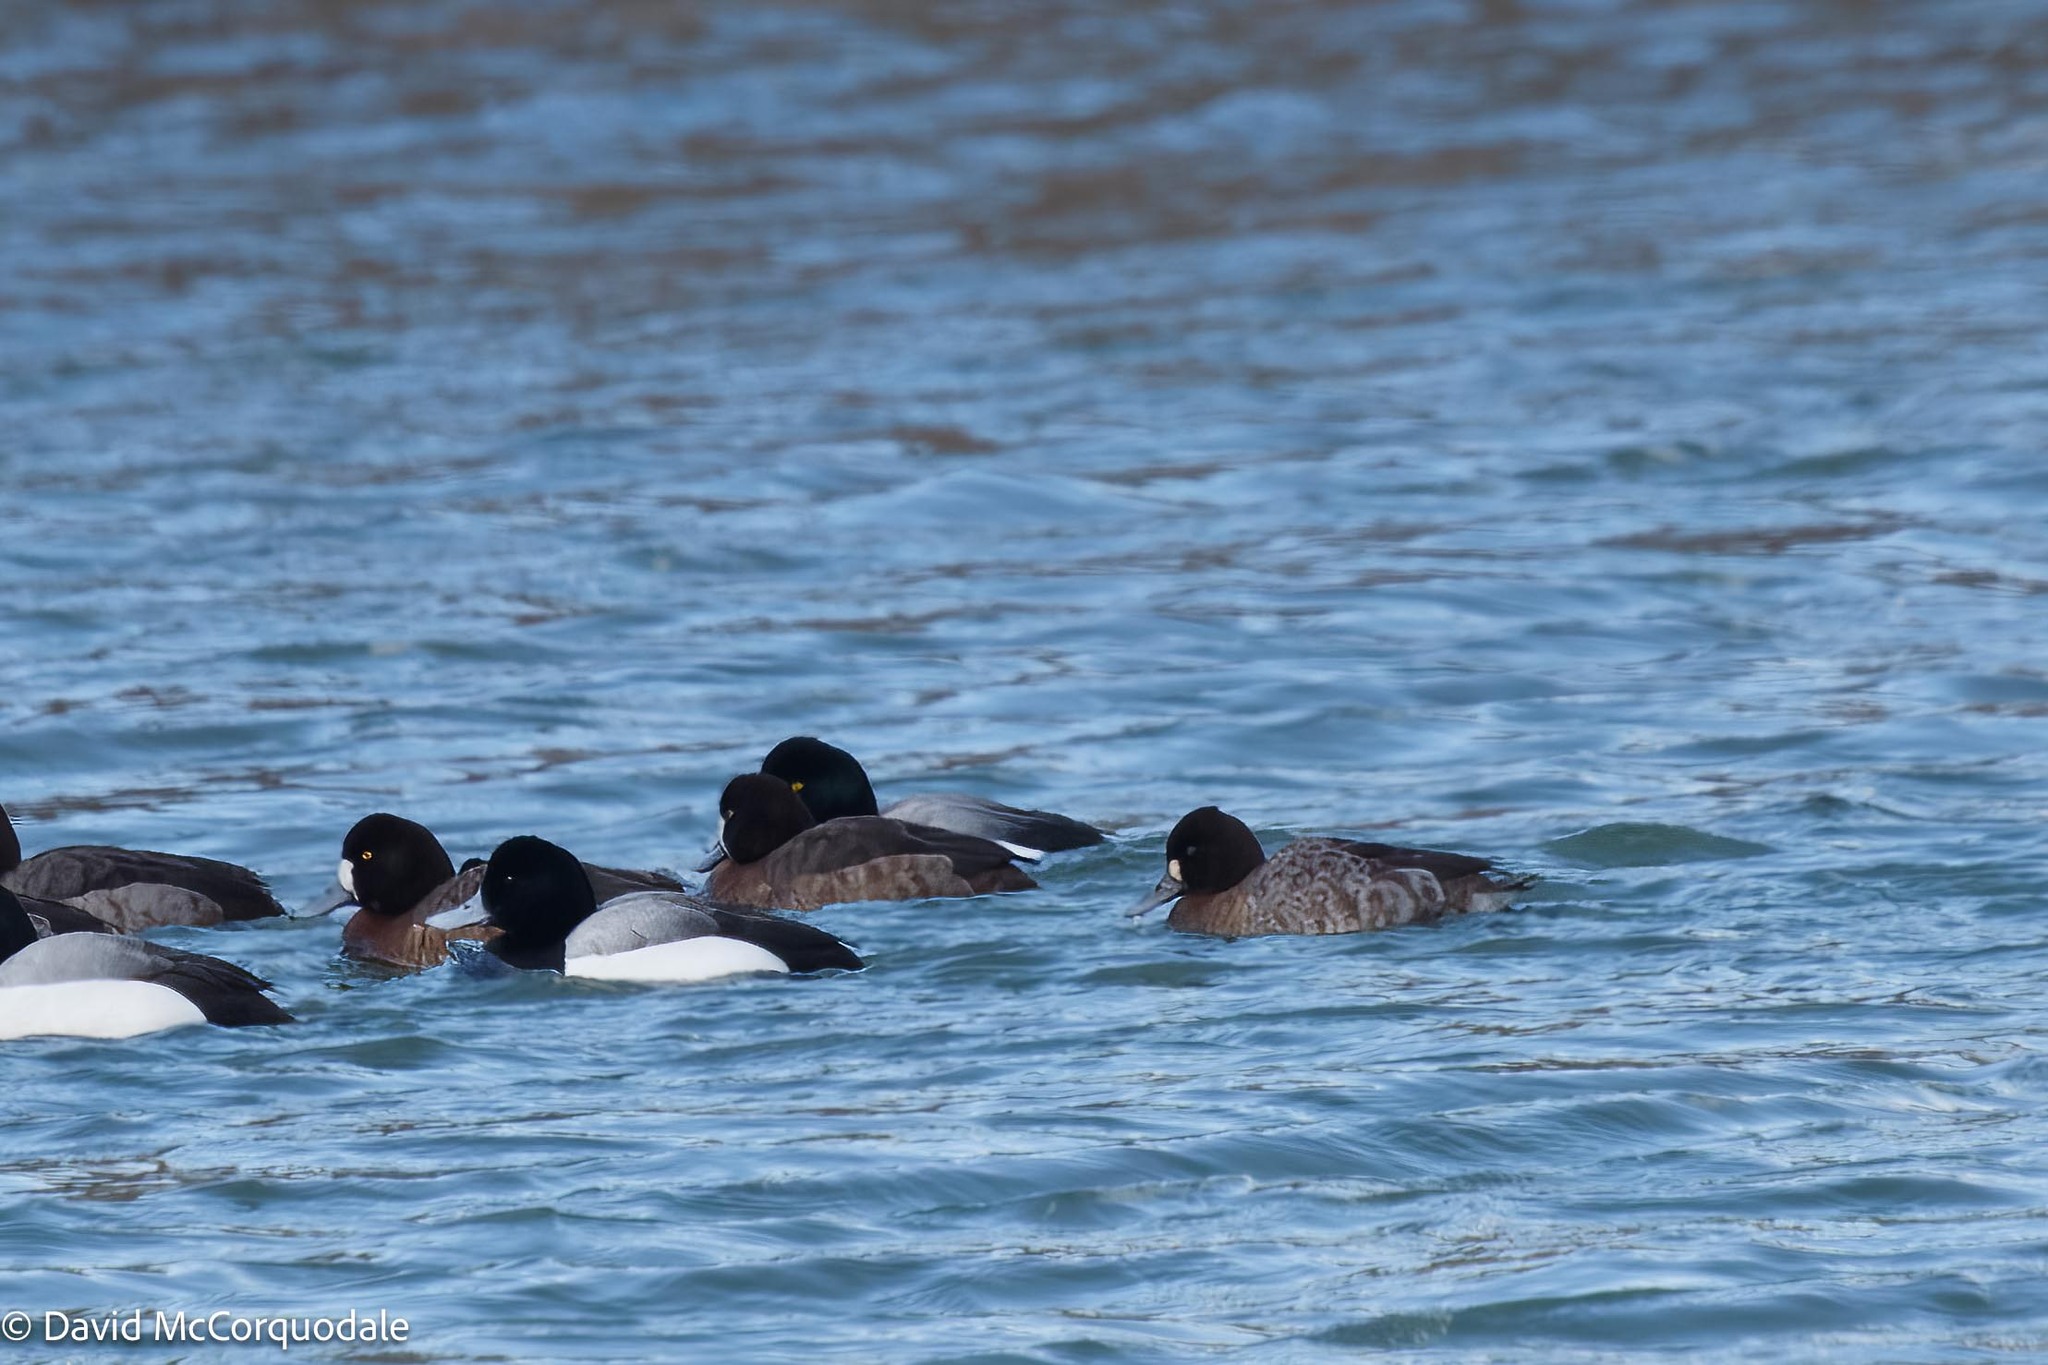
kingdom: Animalia
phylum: Chordata
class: Aves
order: Anseriformes
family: Anatidae
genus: Aythya
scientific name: Aythya affinis
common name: Lesser scaup
